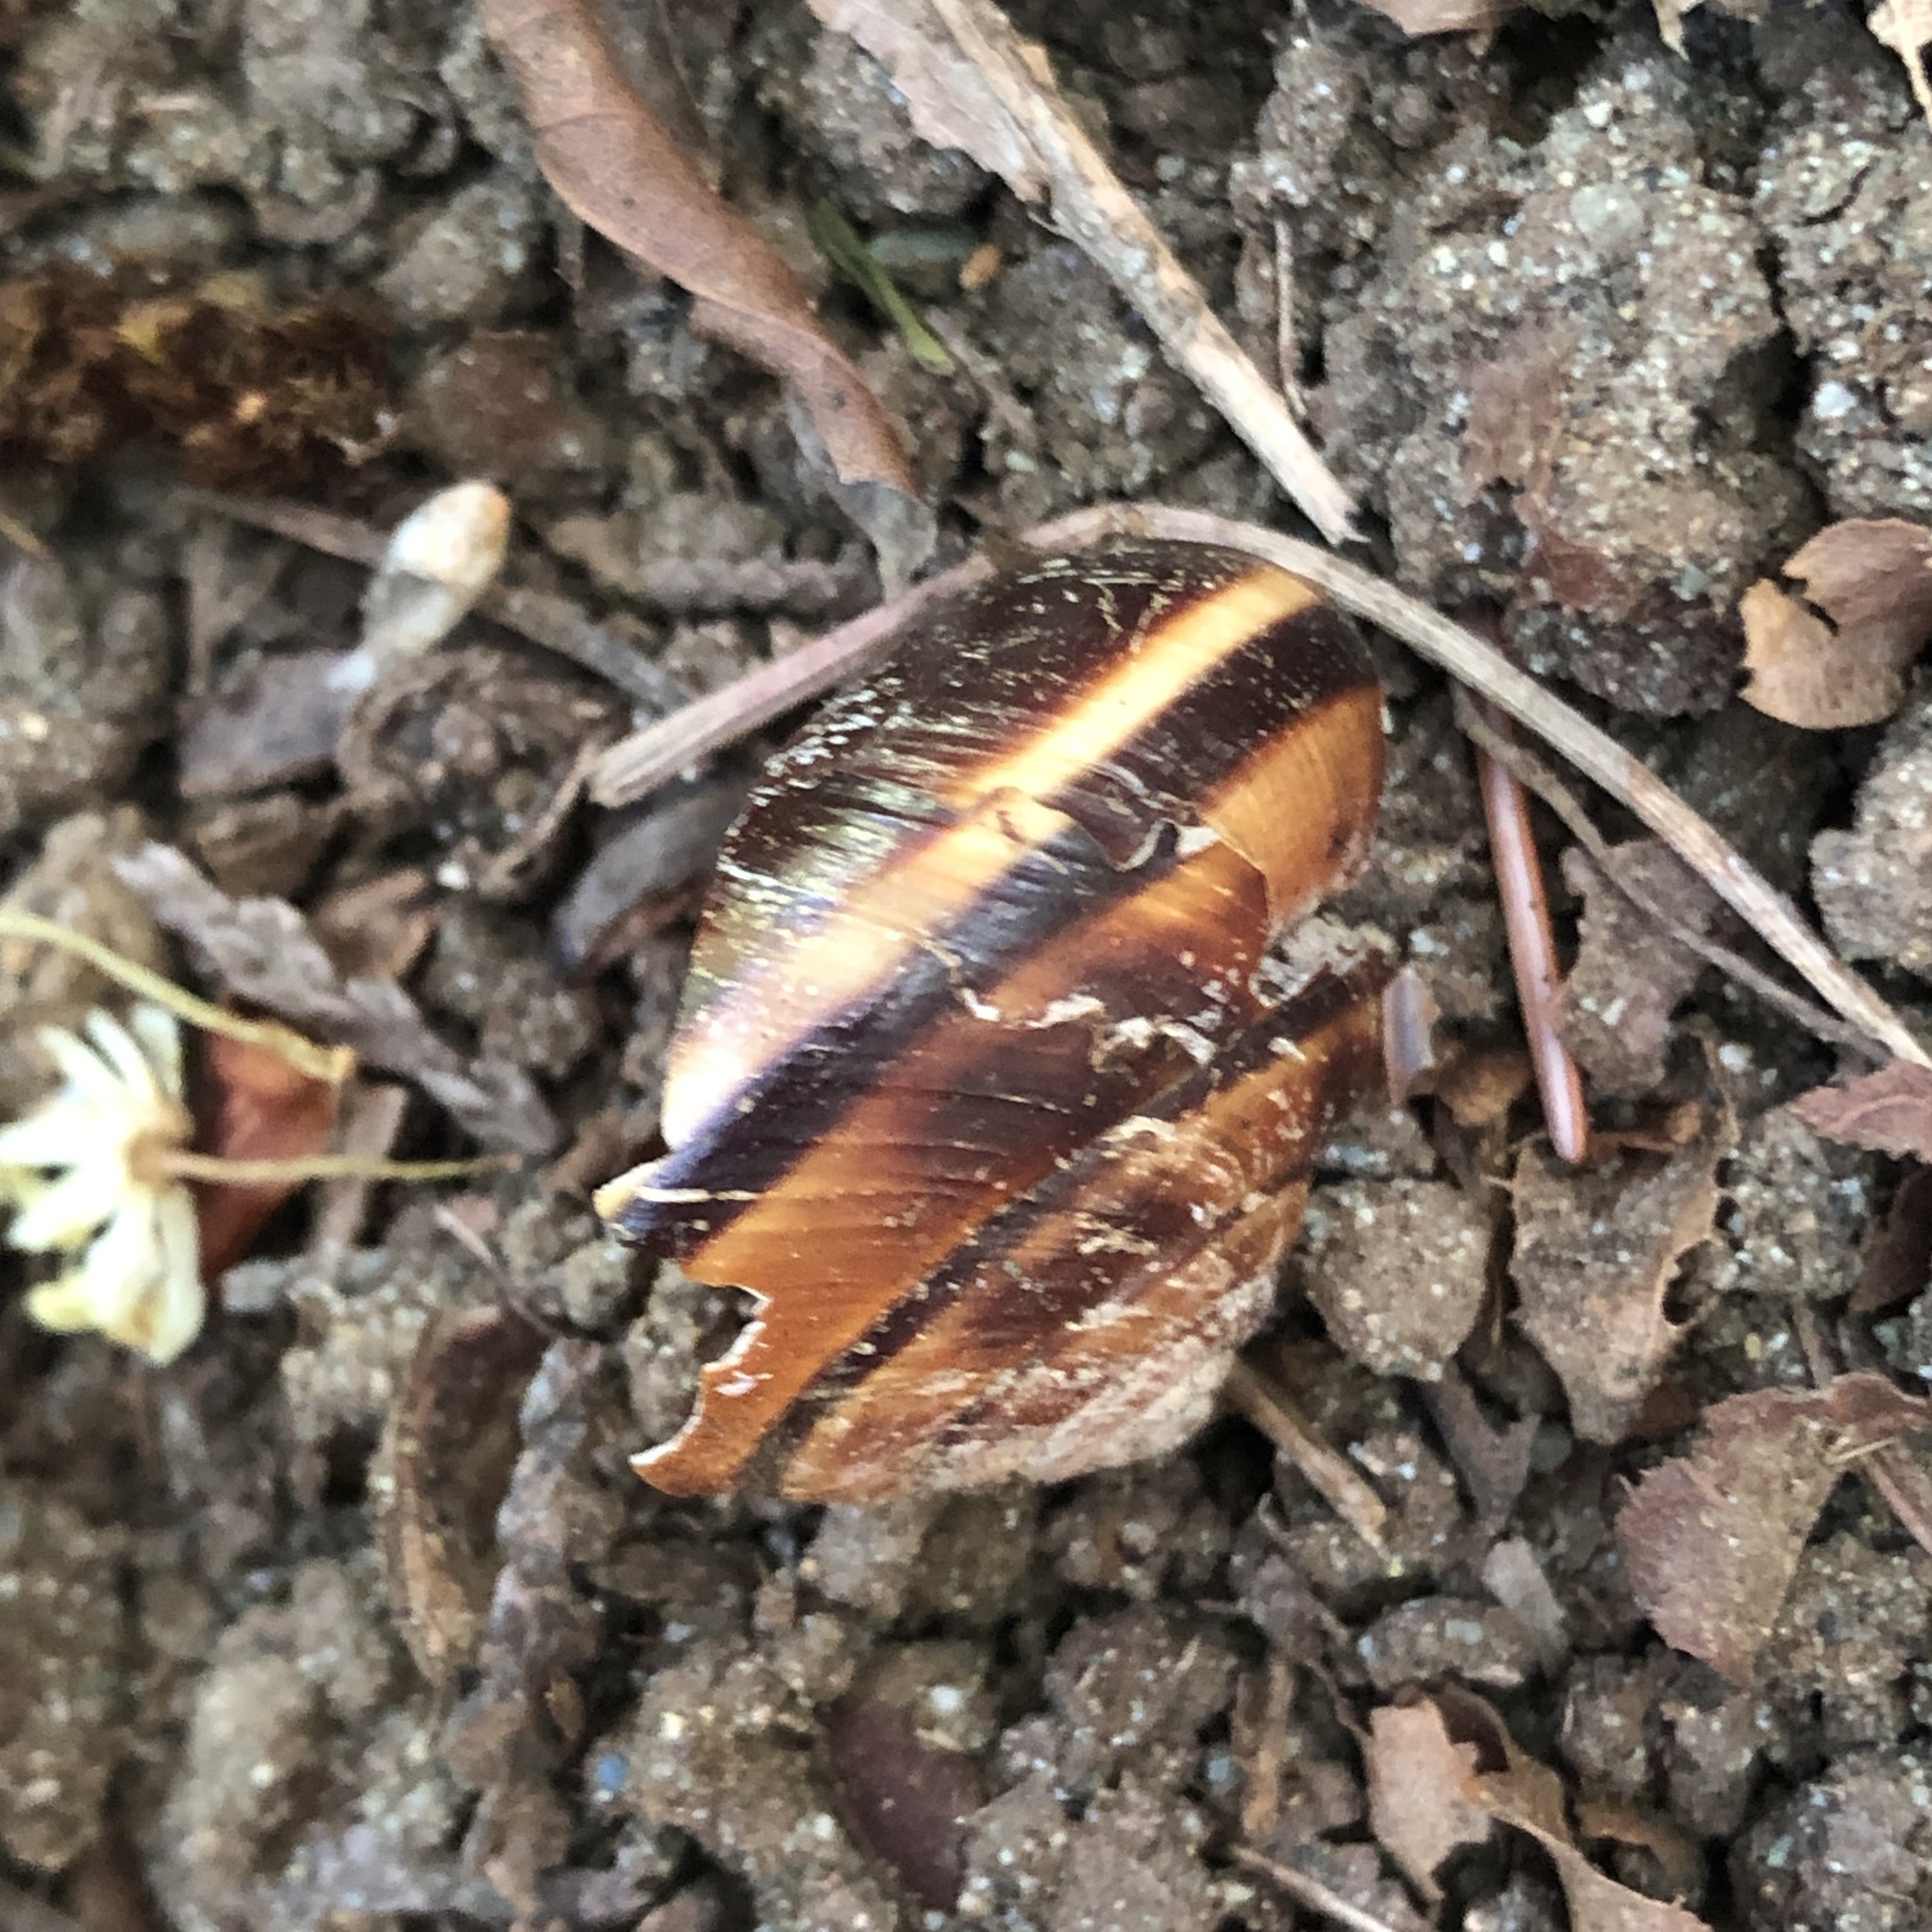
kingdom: Animalia
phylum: Mollusca
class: Gastropoda
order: Stylommatophora
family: Xanthonychidae
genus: Monadenia
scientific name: Monadenia fidelis
